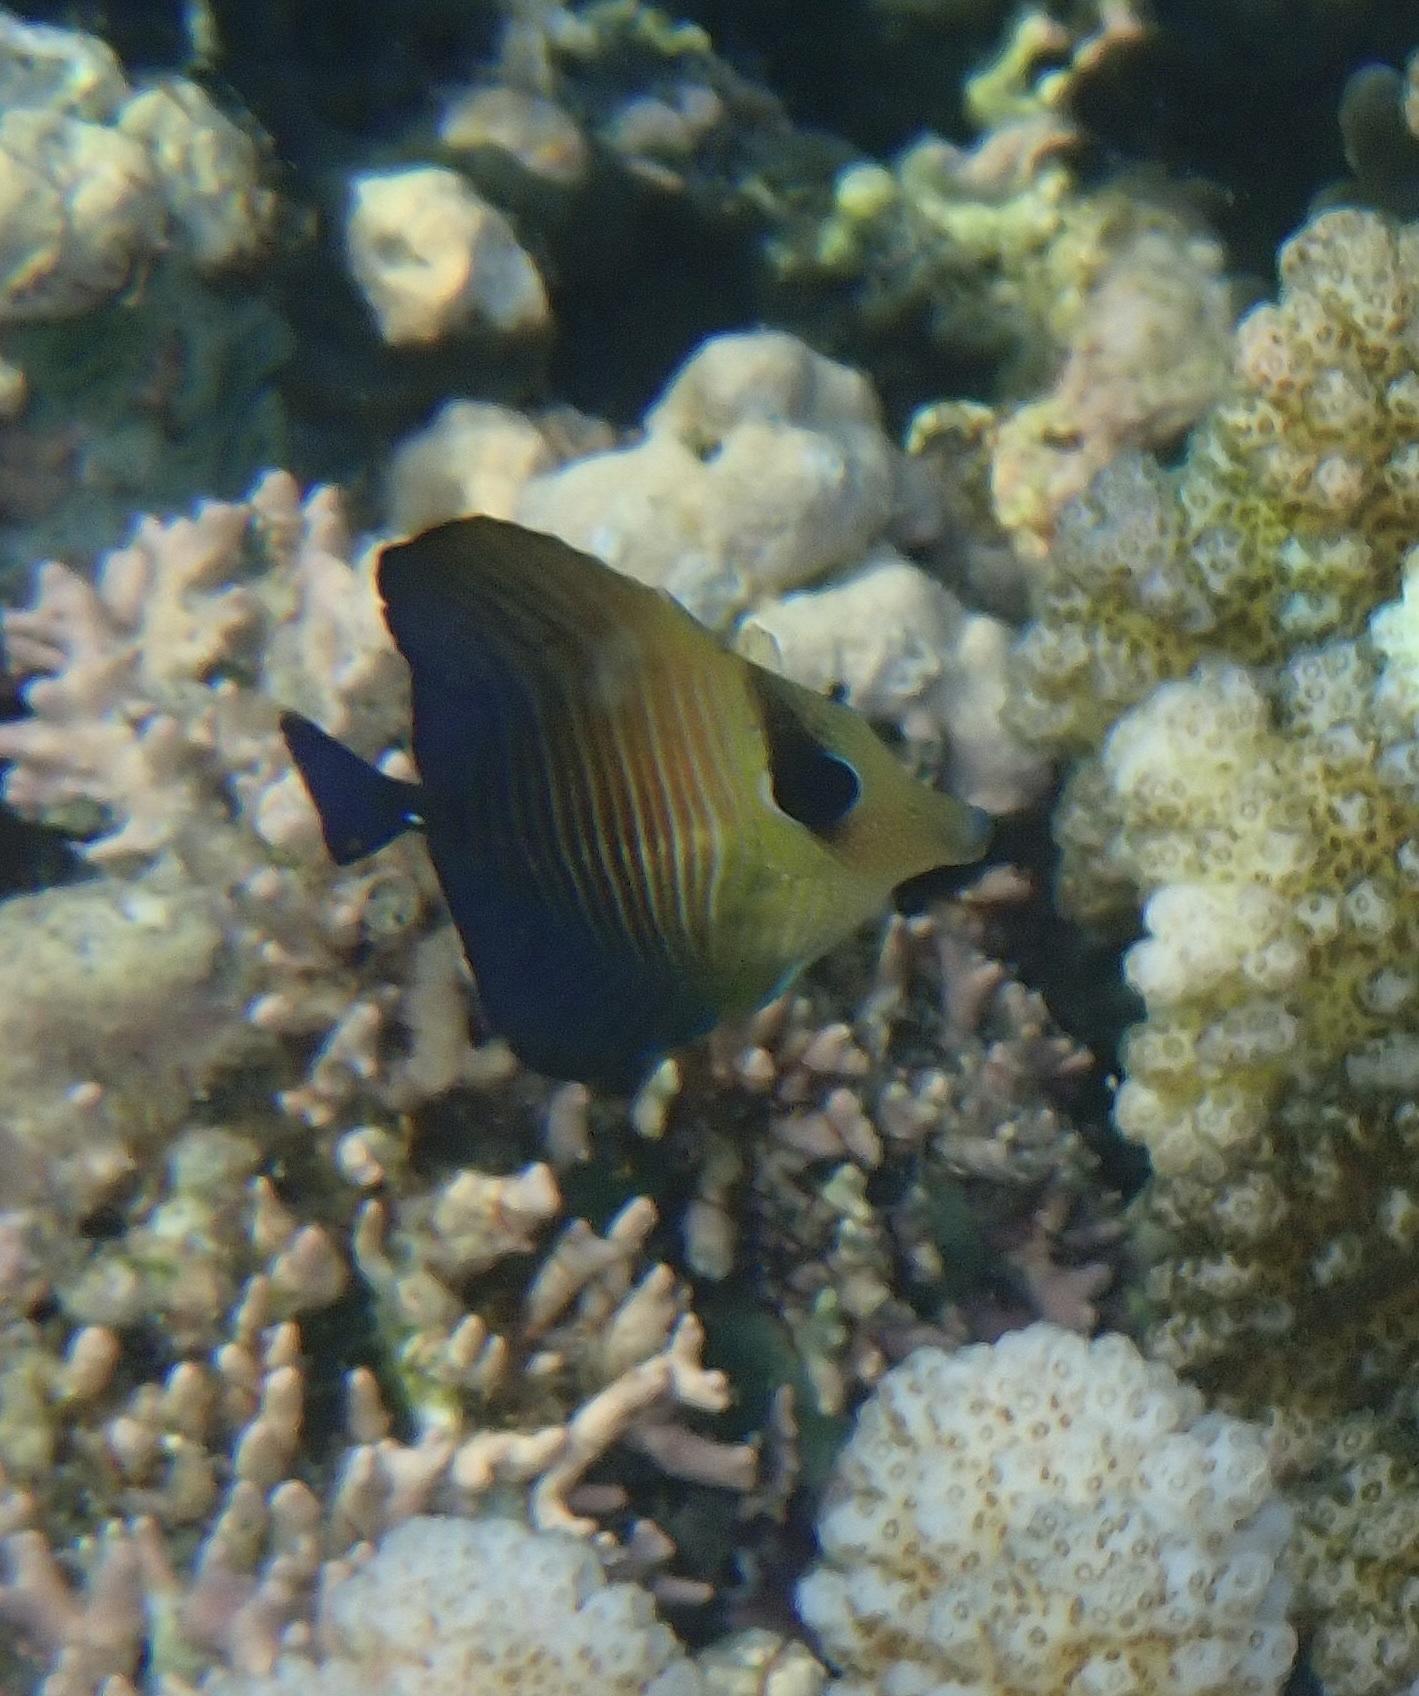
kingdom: Animalia
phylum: Chordata
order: Perciformes
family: Acanthuridae
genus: Zebrasoma
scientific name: Zebrasoma scopas
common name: Twotone tang
